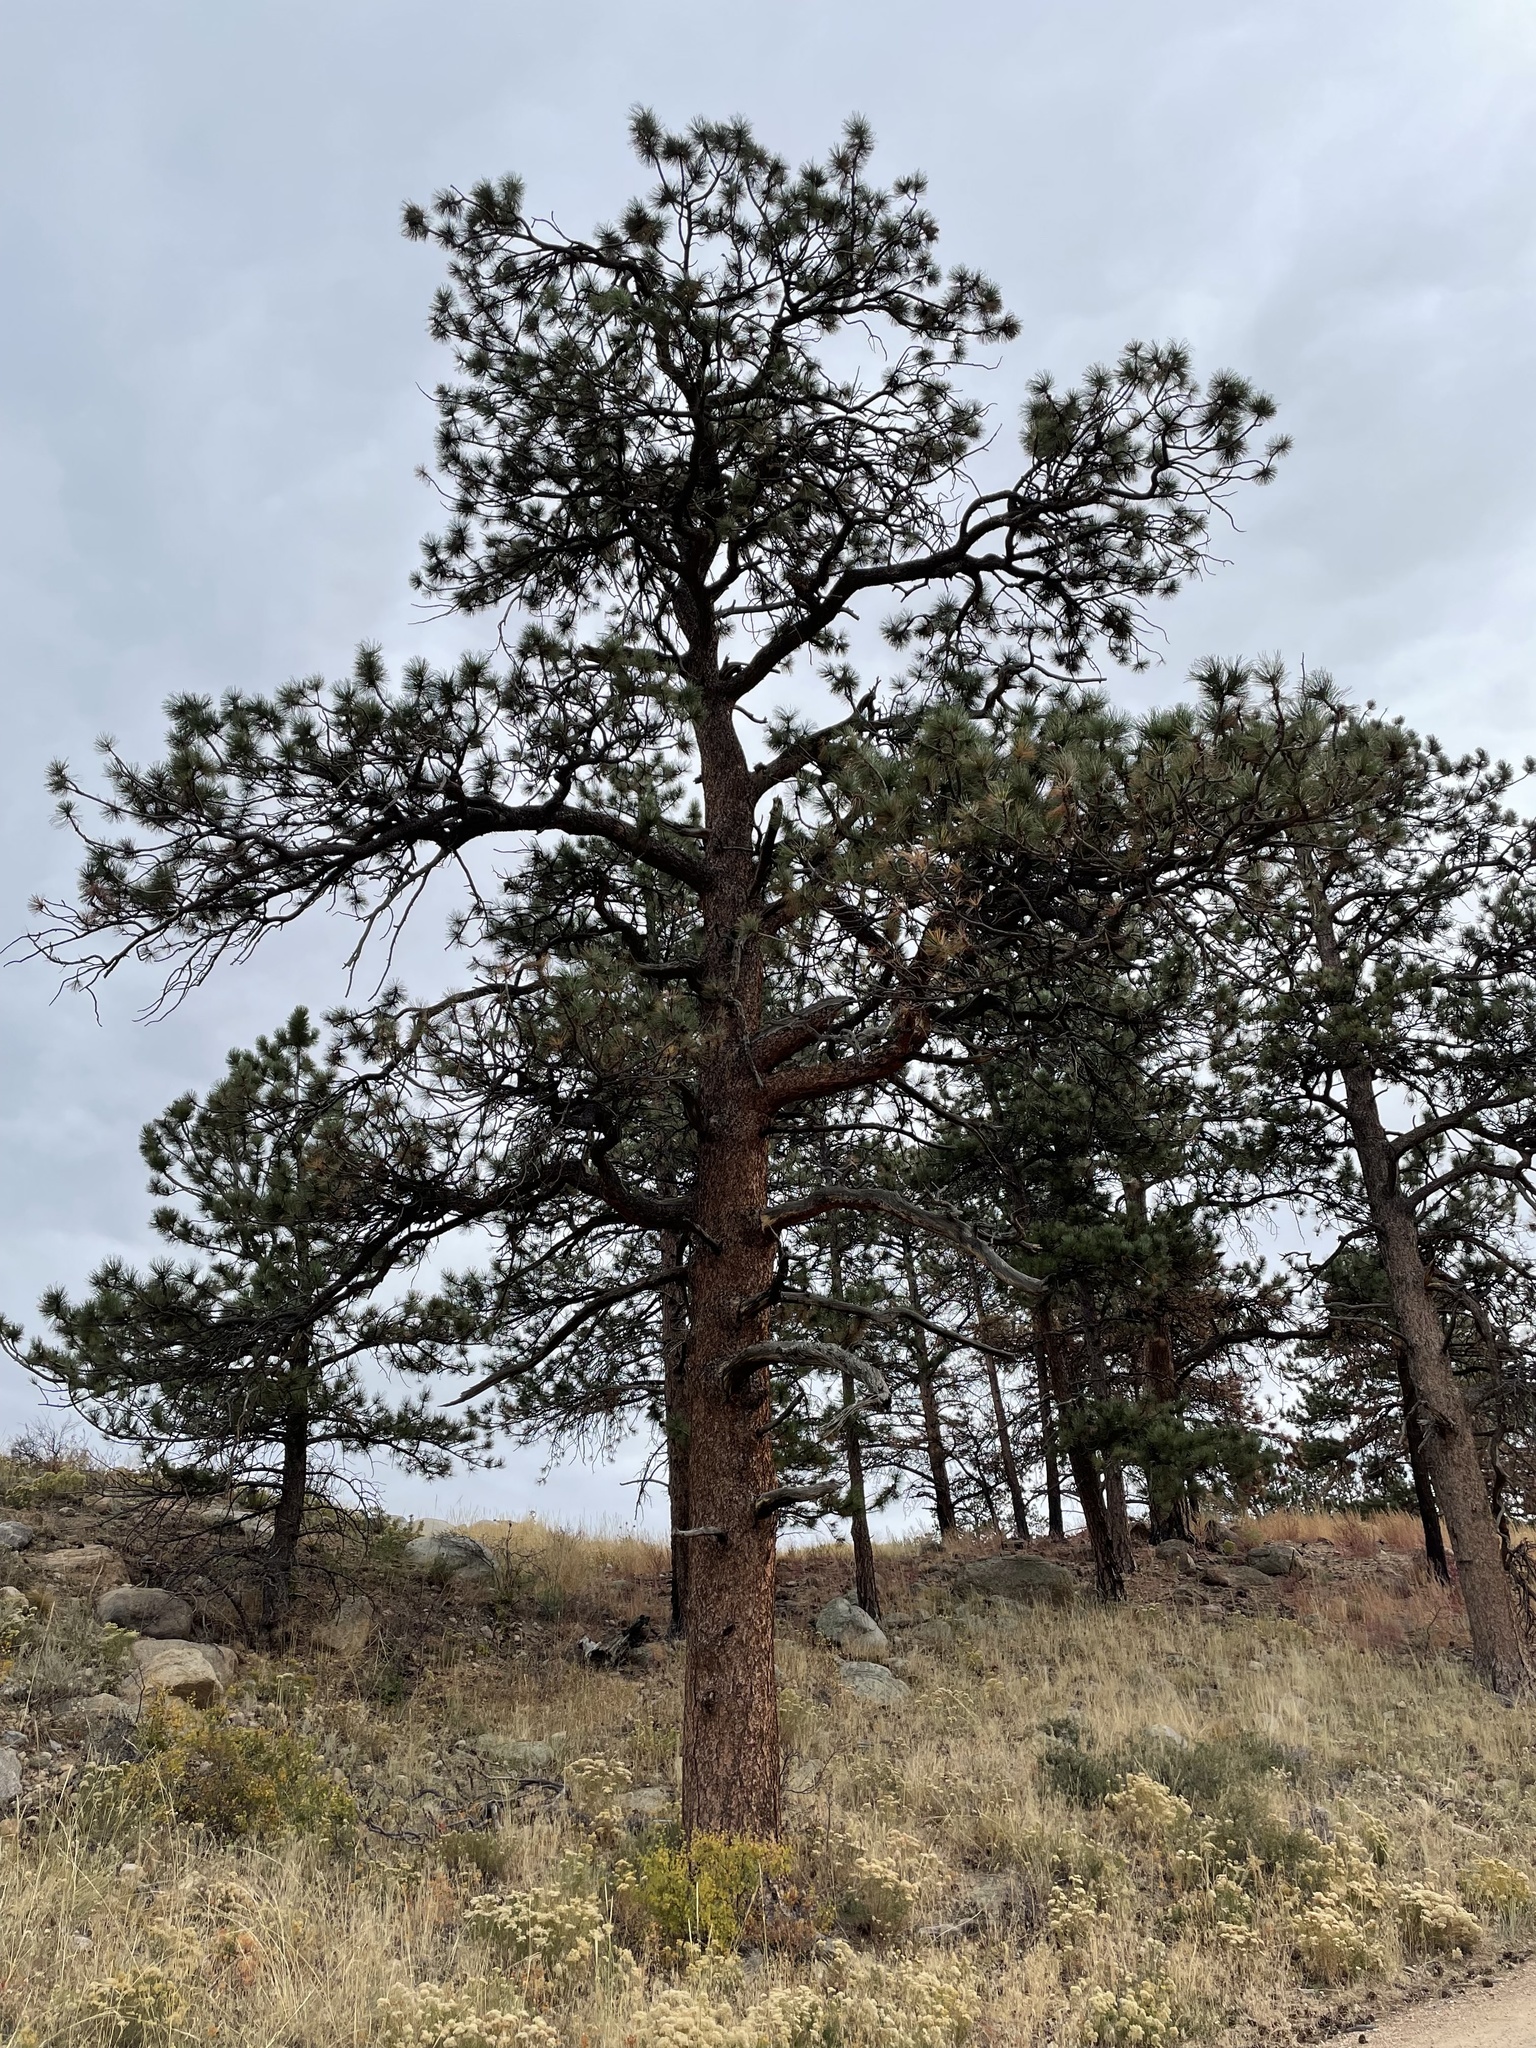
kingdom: Plantae
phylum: Tracheophyta
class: Pinopsida
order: Pinales
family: Pinaceae
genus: Pinus
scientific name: Pinus ponderosa
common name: Western yellow-pine
